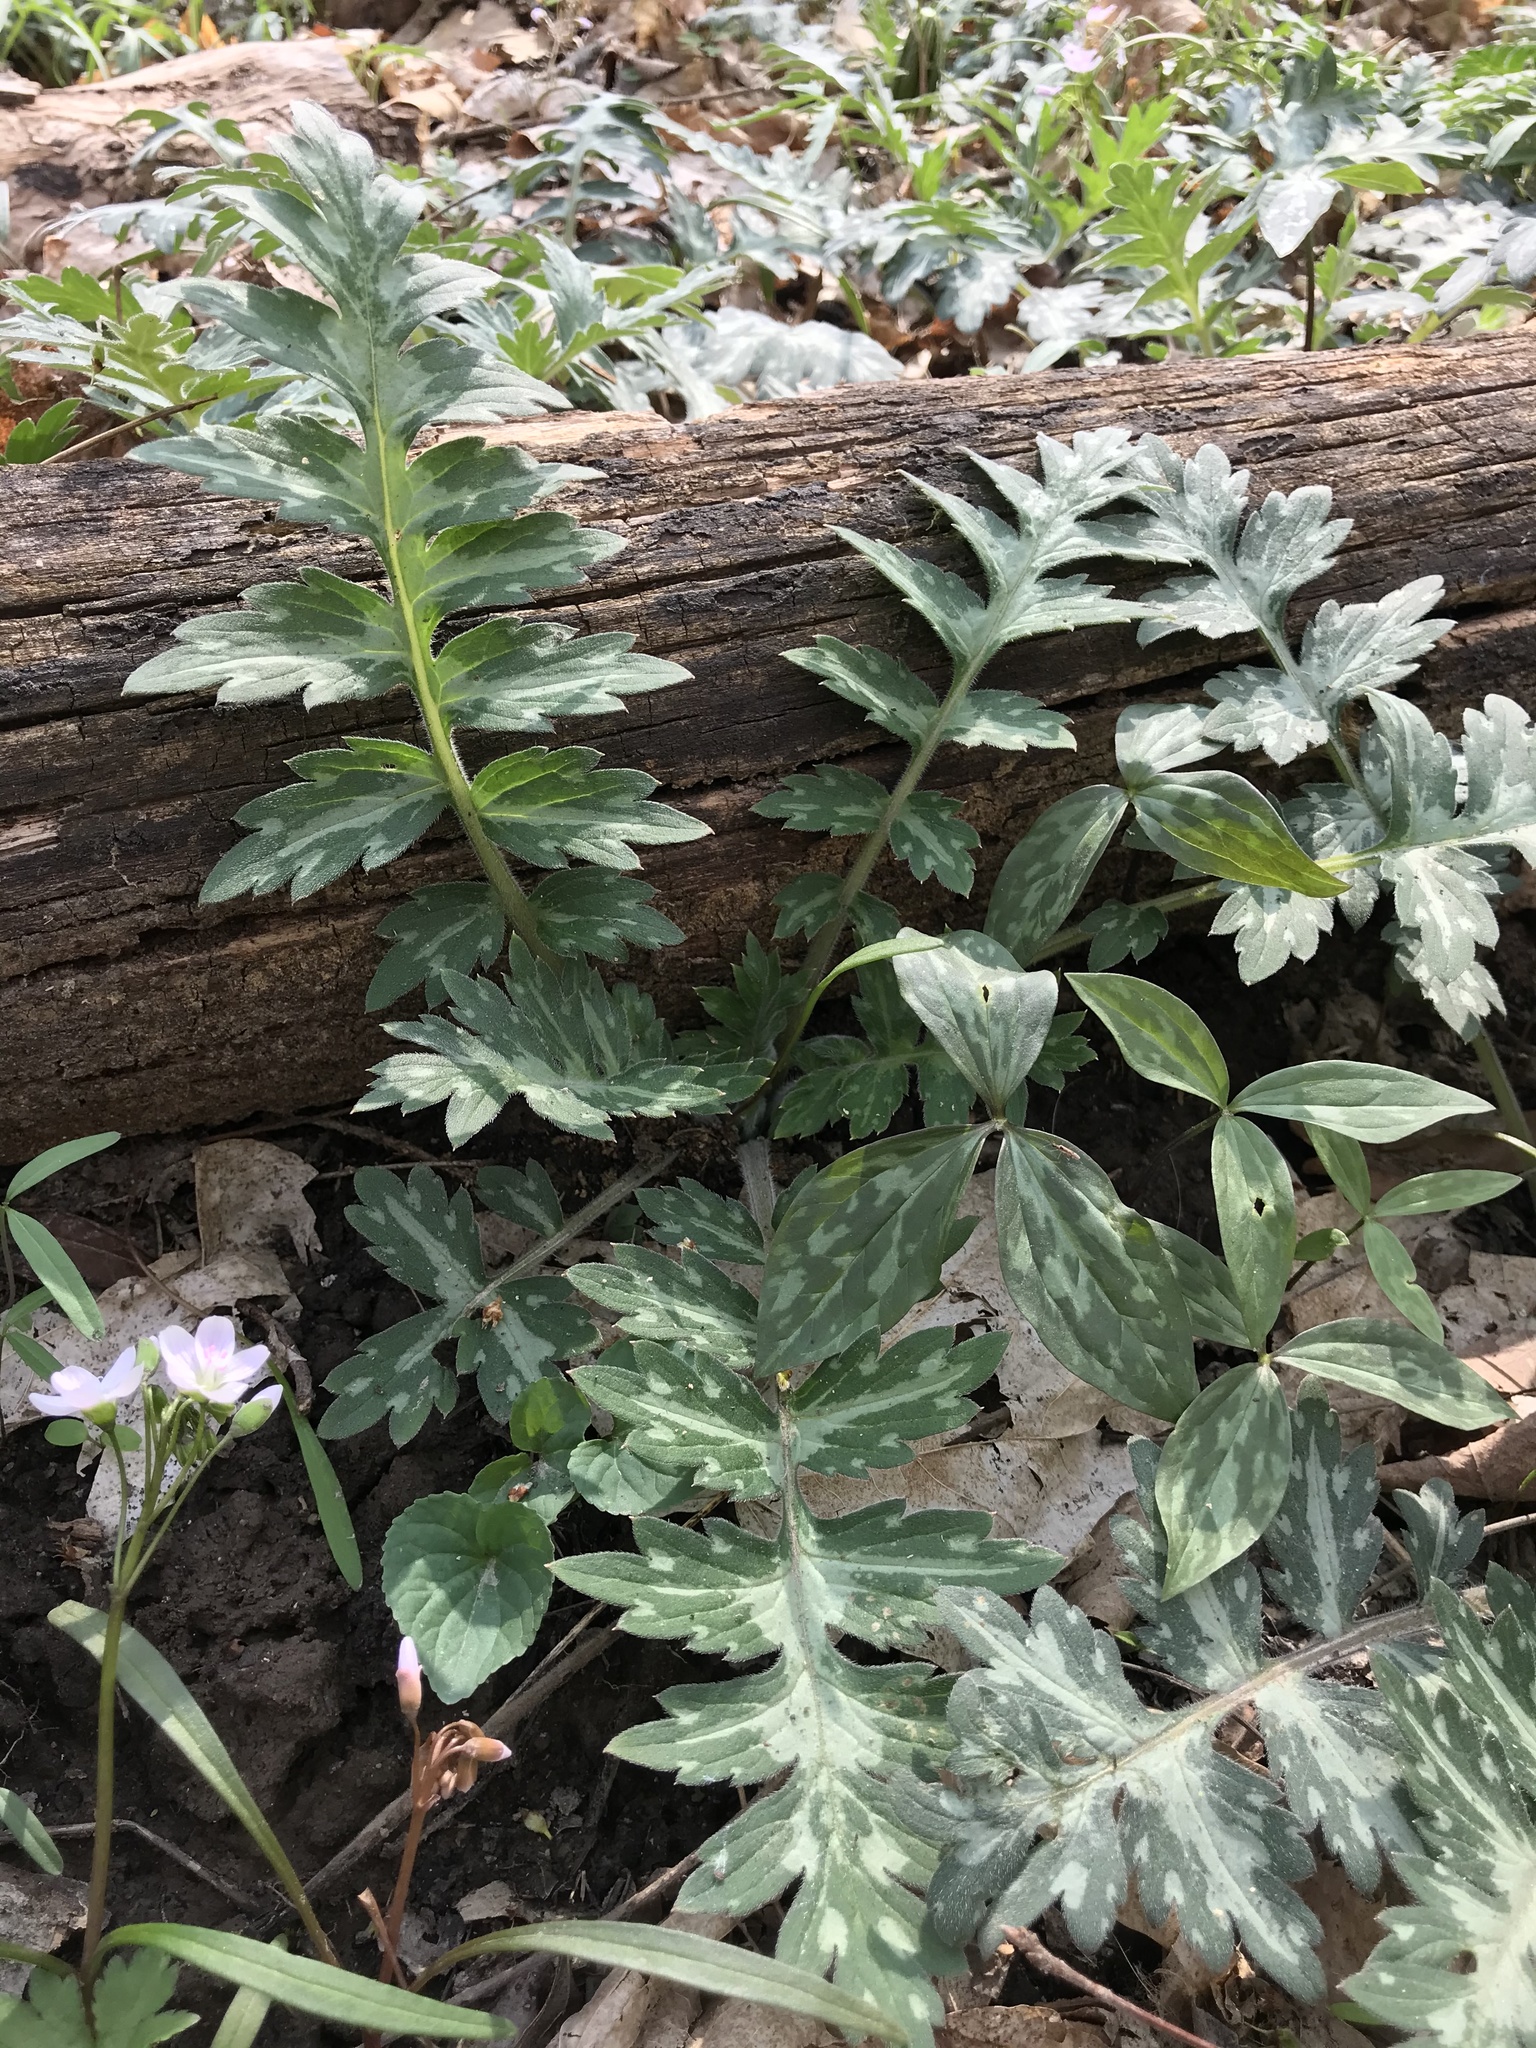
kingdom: Plantae
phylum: Tracheophyta
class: Magnoliopsida
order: Boraginales
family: Hydrophyllaceae
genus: Hydrophyllum
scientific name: Hydrophyllum macrophyllum
